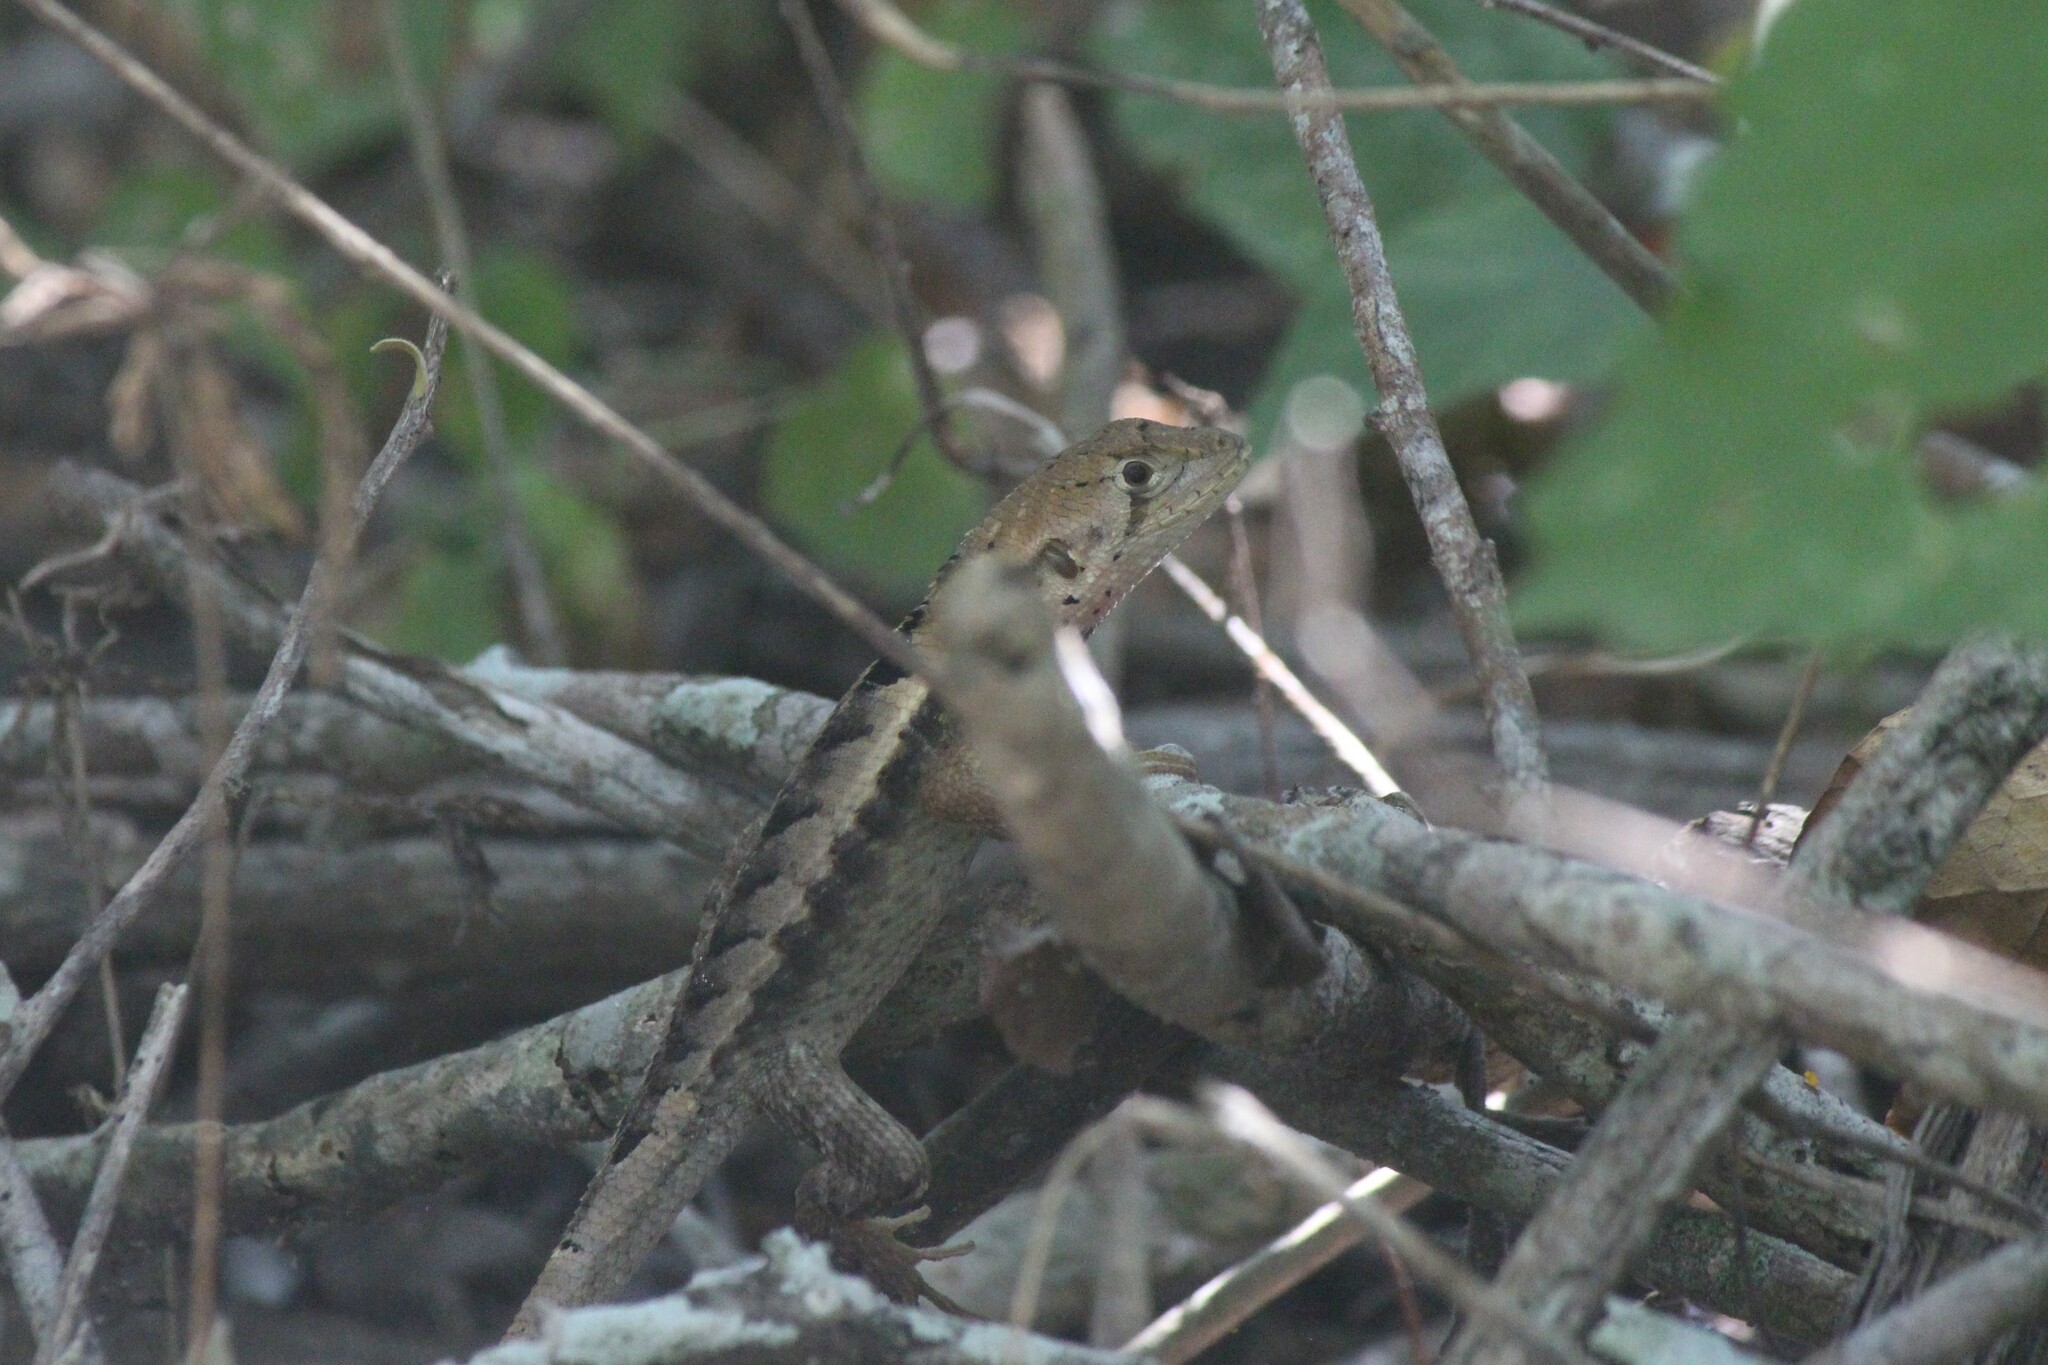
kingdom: Animalia
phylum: Chordata
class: Squamata
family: Tropiduridae
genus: Stenocercus
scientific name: Stenocercus iridescens
